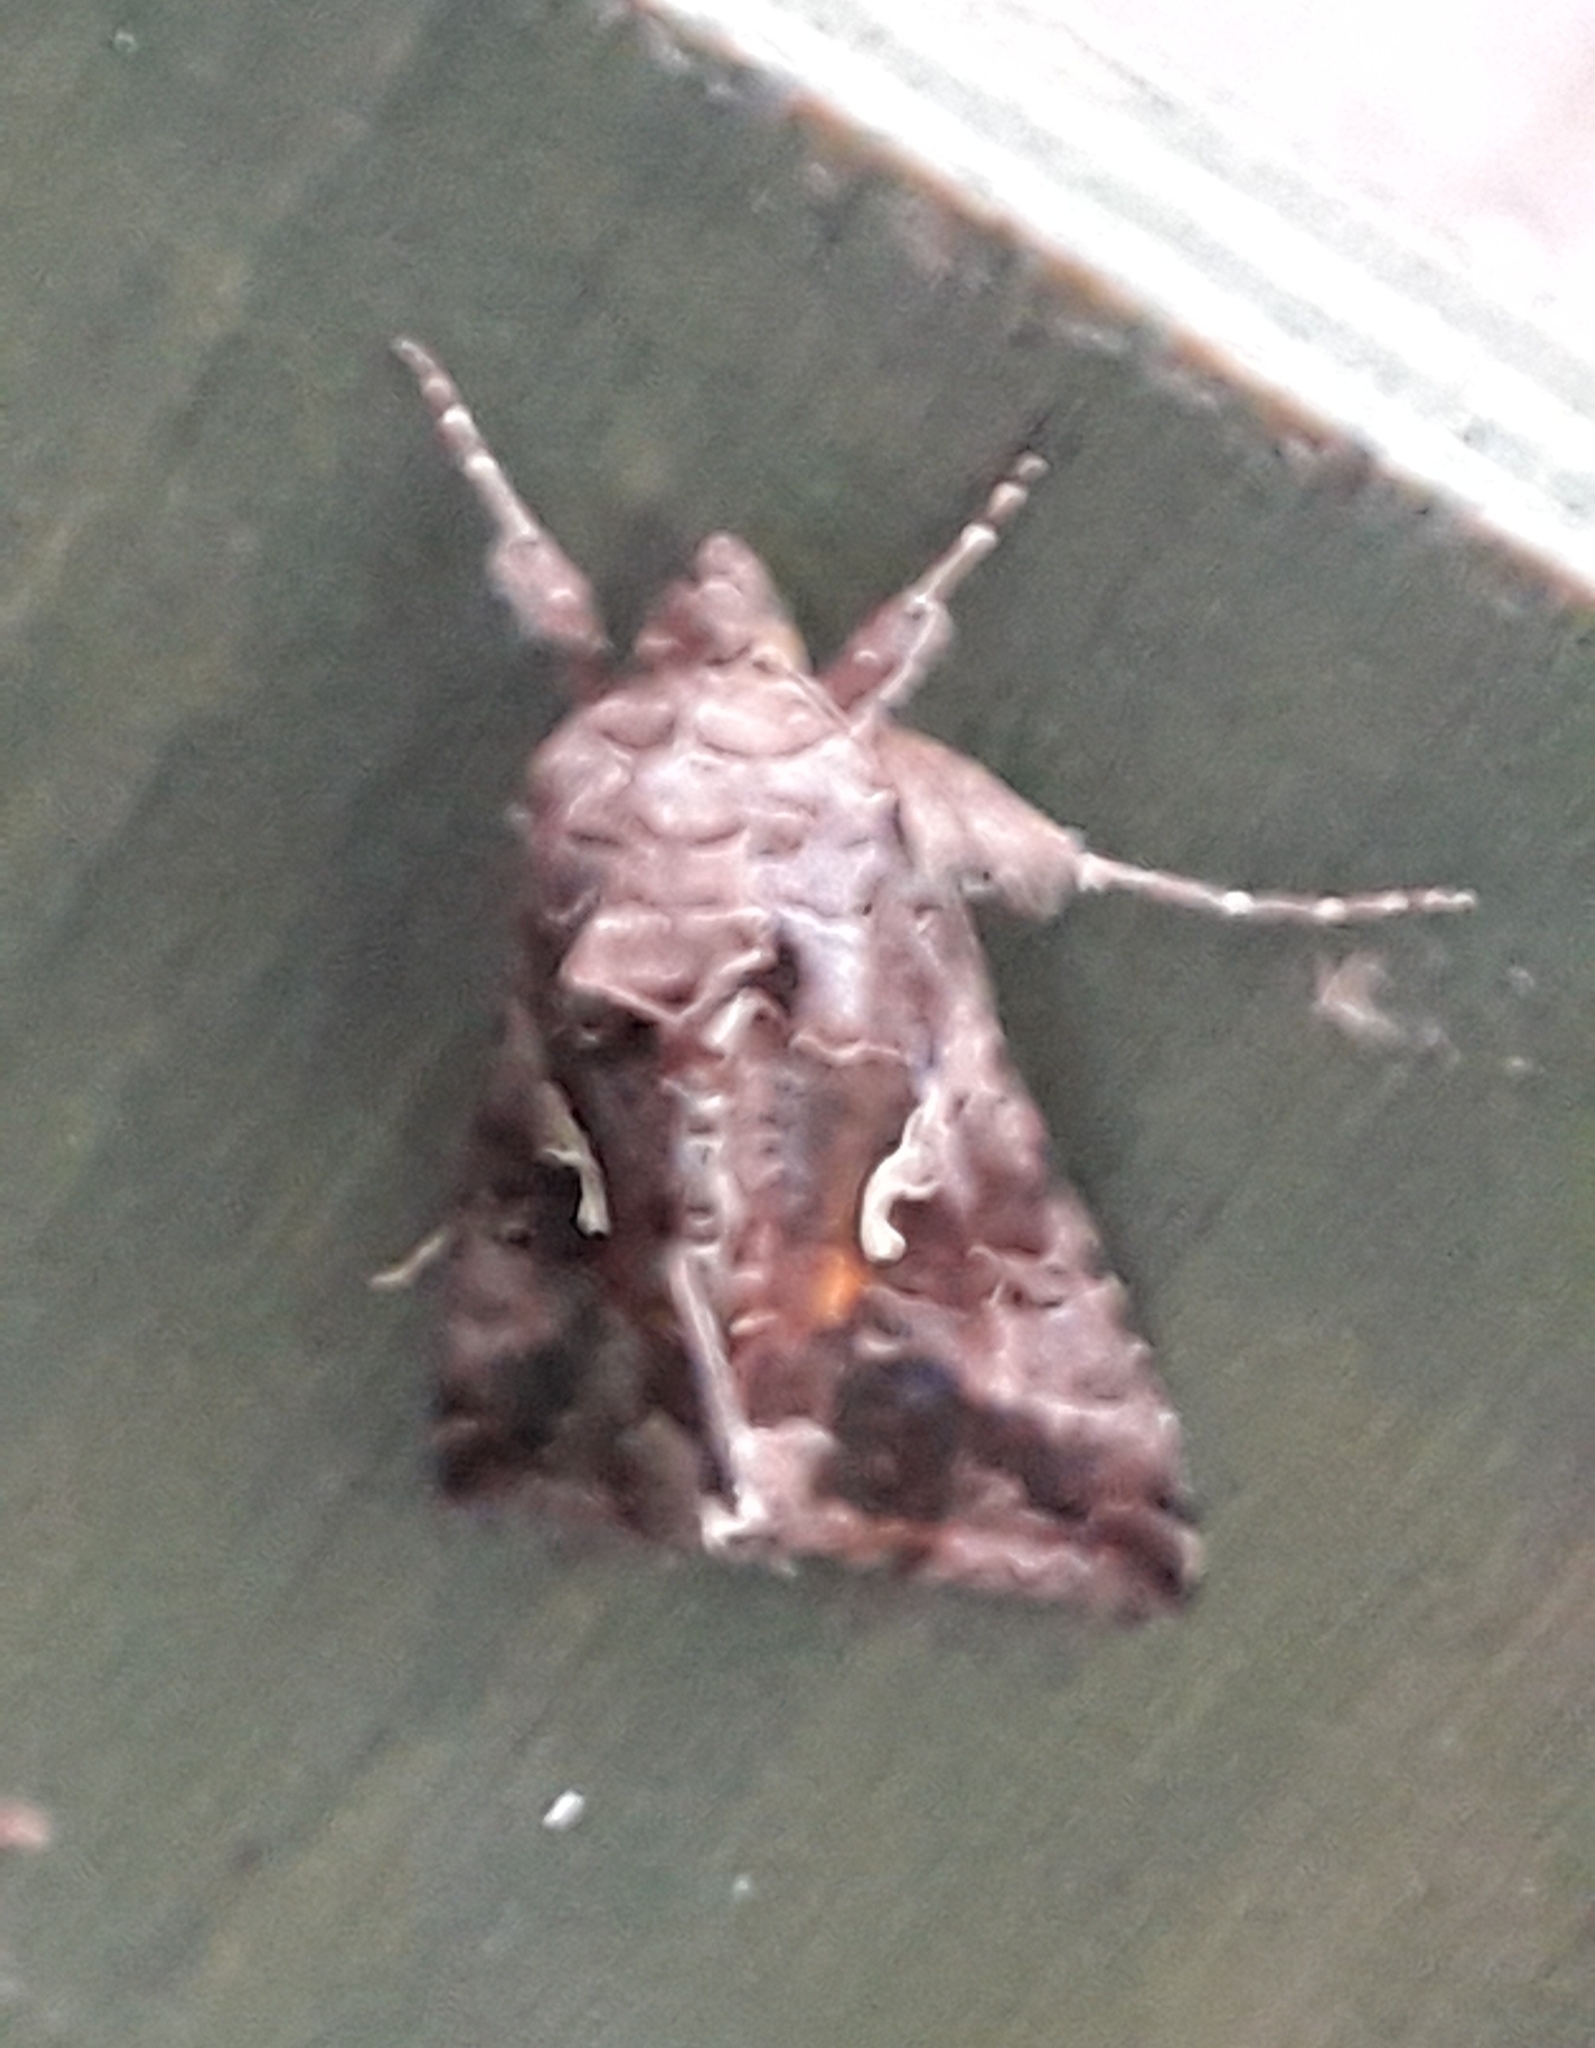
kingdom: Animalia
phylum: Arthropoda
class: Insecta
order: Lepidoptera
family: Noctuidae
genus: Autographa
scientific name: Autographa gamma
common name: Silver y
